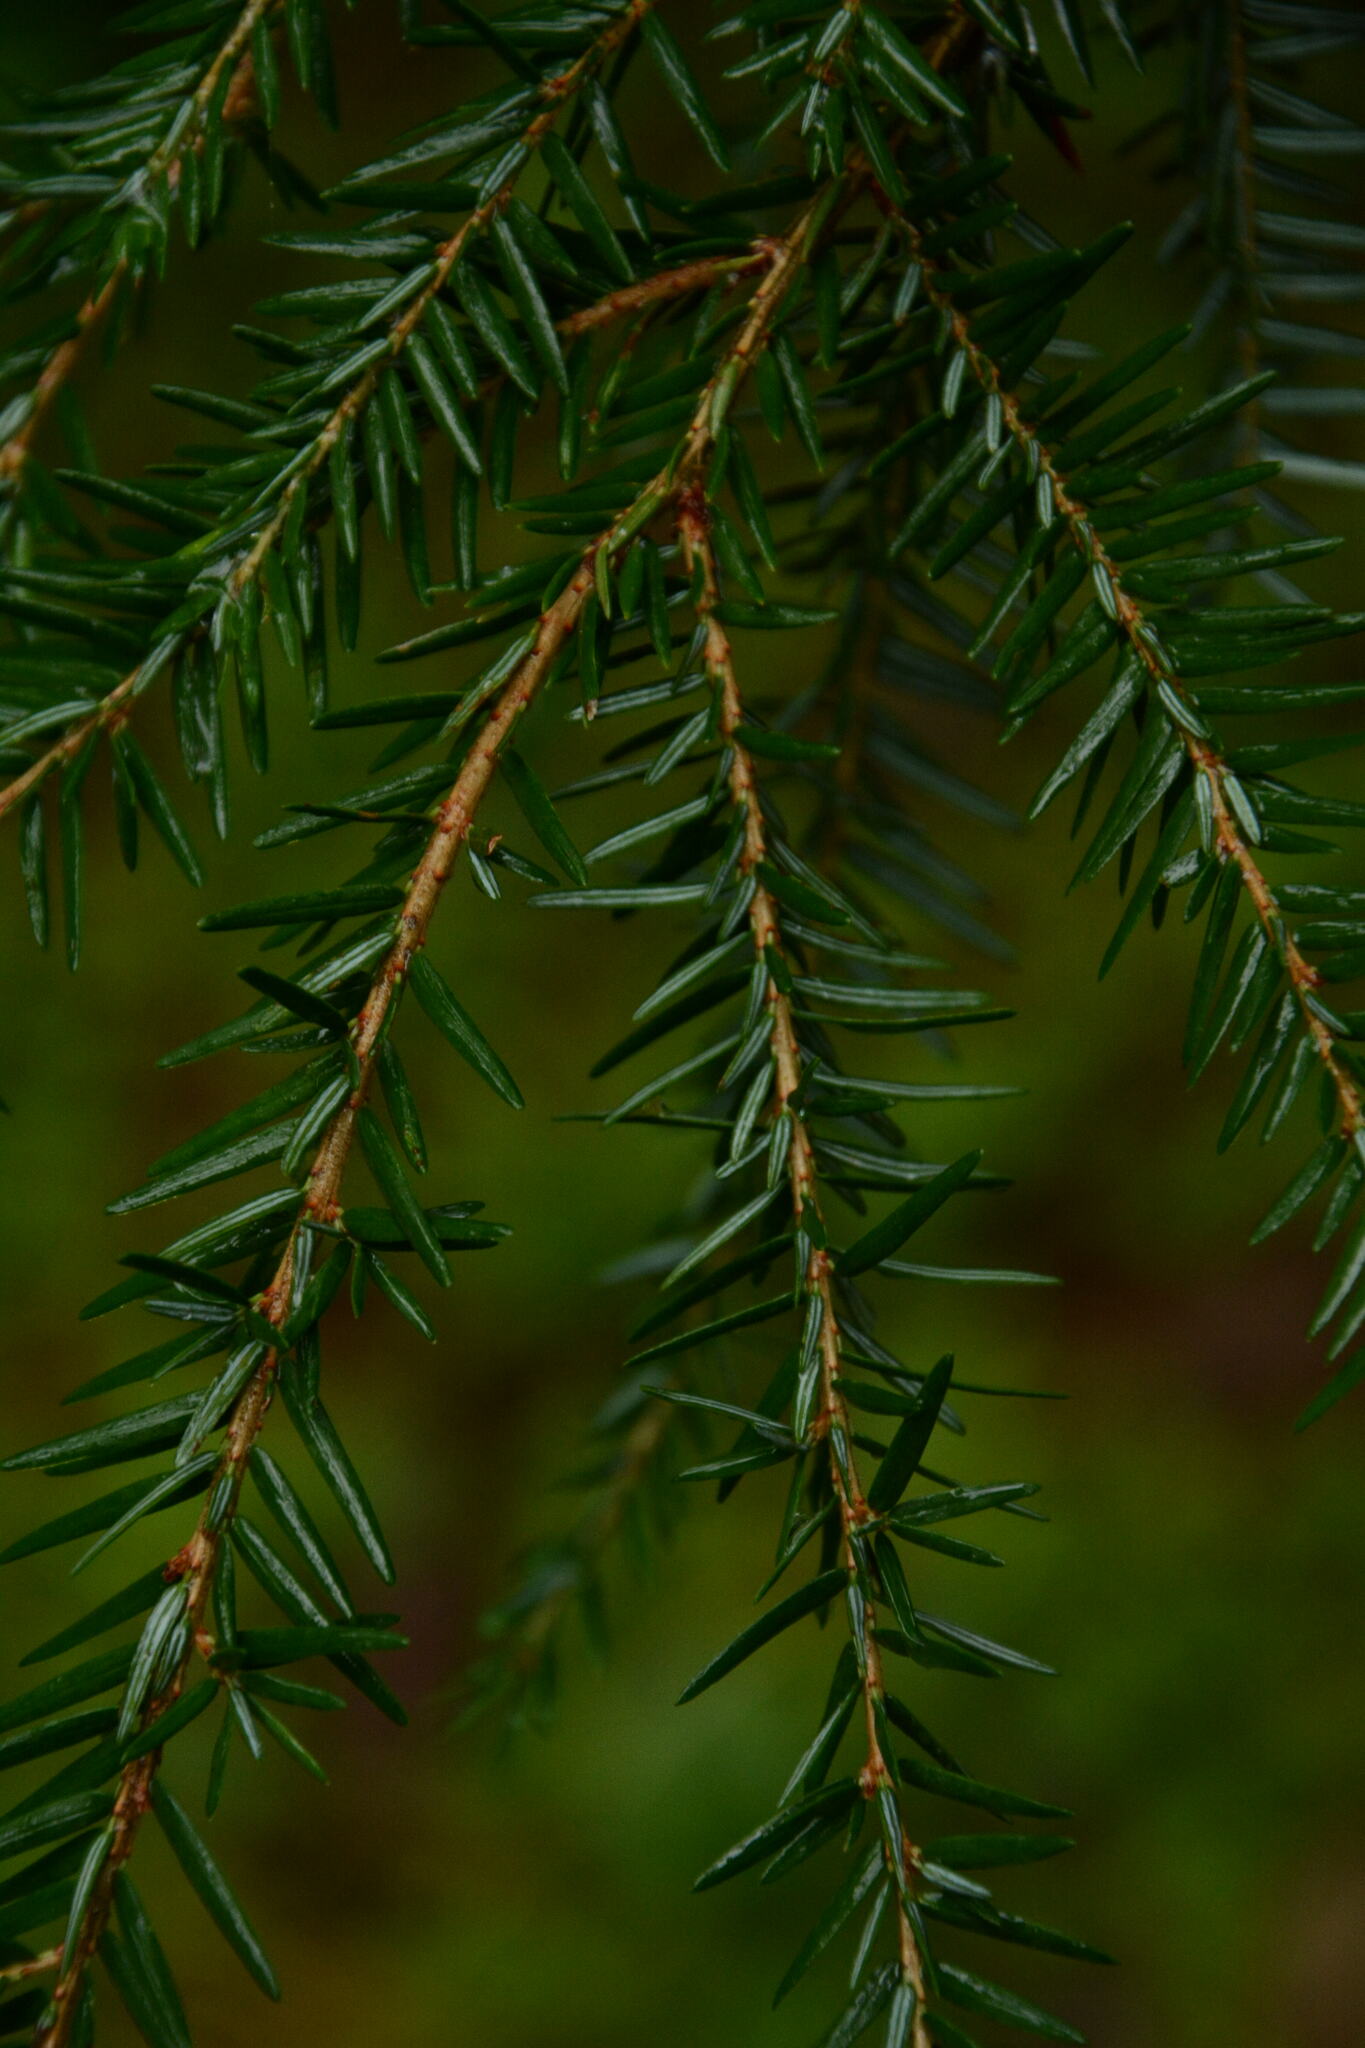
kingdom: Plantae
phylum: Tracheophyta
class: Pinopsida
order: Pinales
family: Pinaceae
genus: Tsuga
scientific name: Tsuga canadensis
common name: Eastern hemlock
